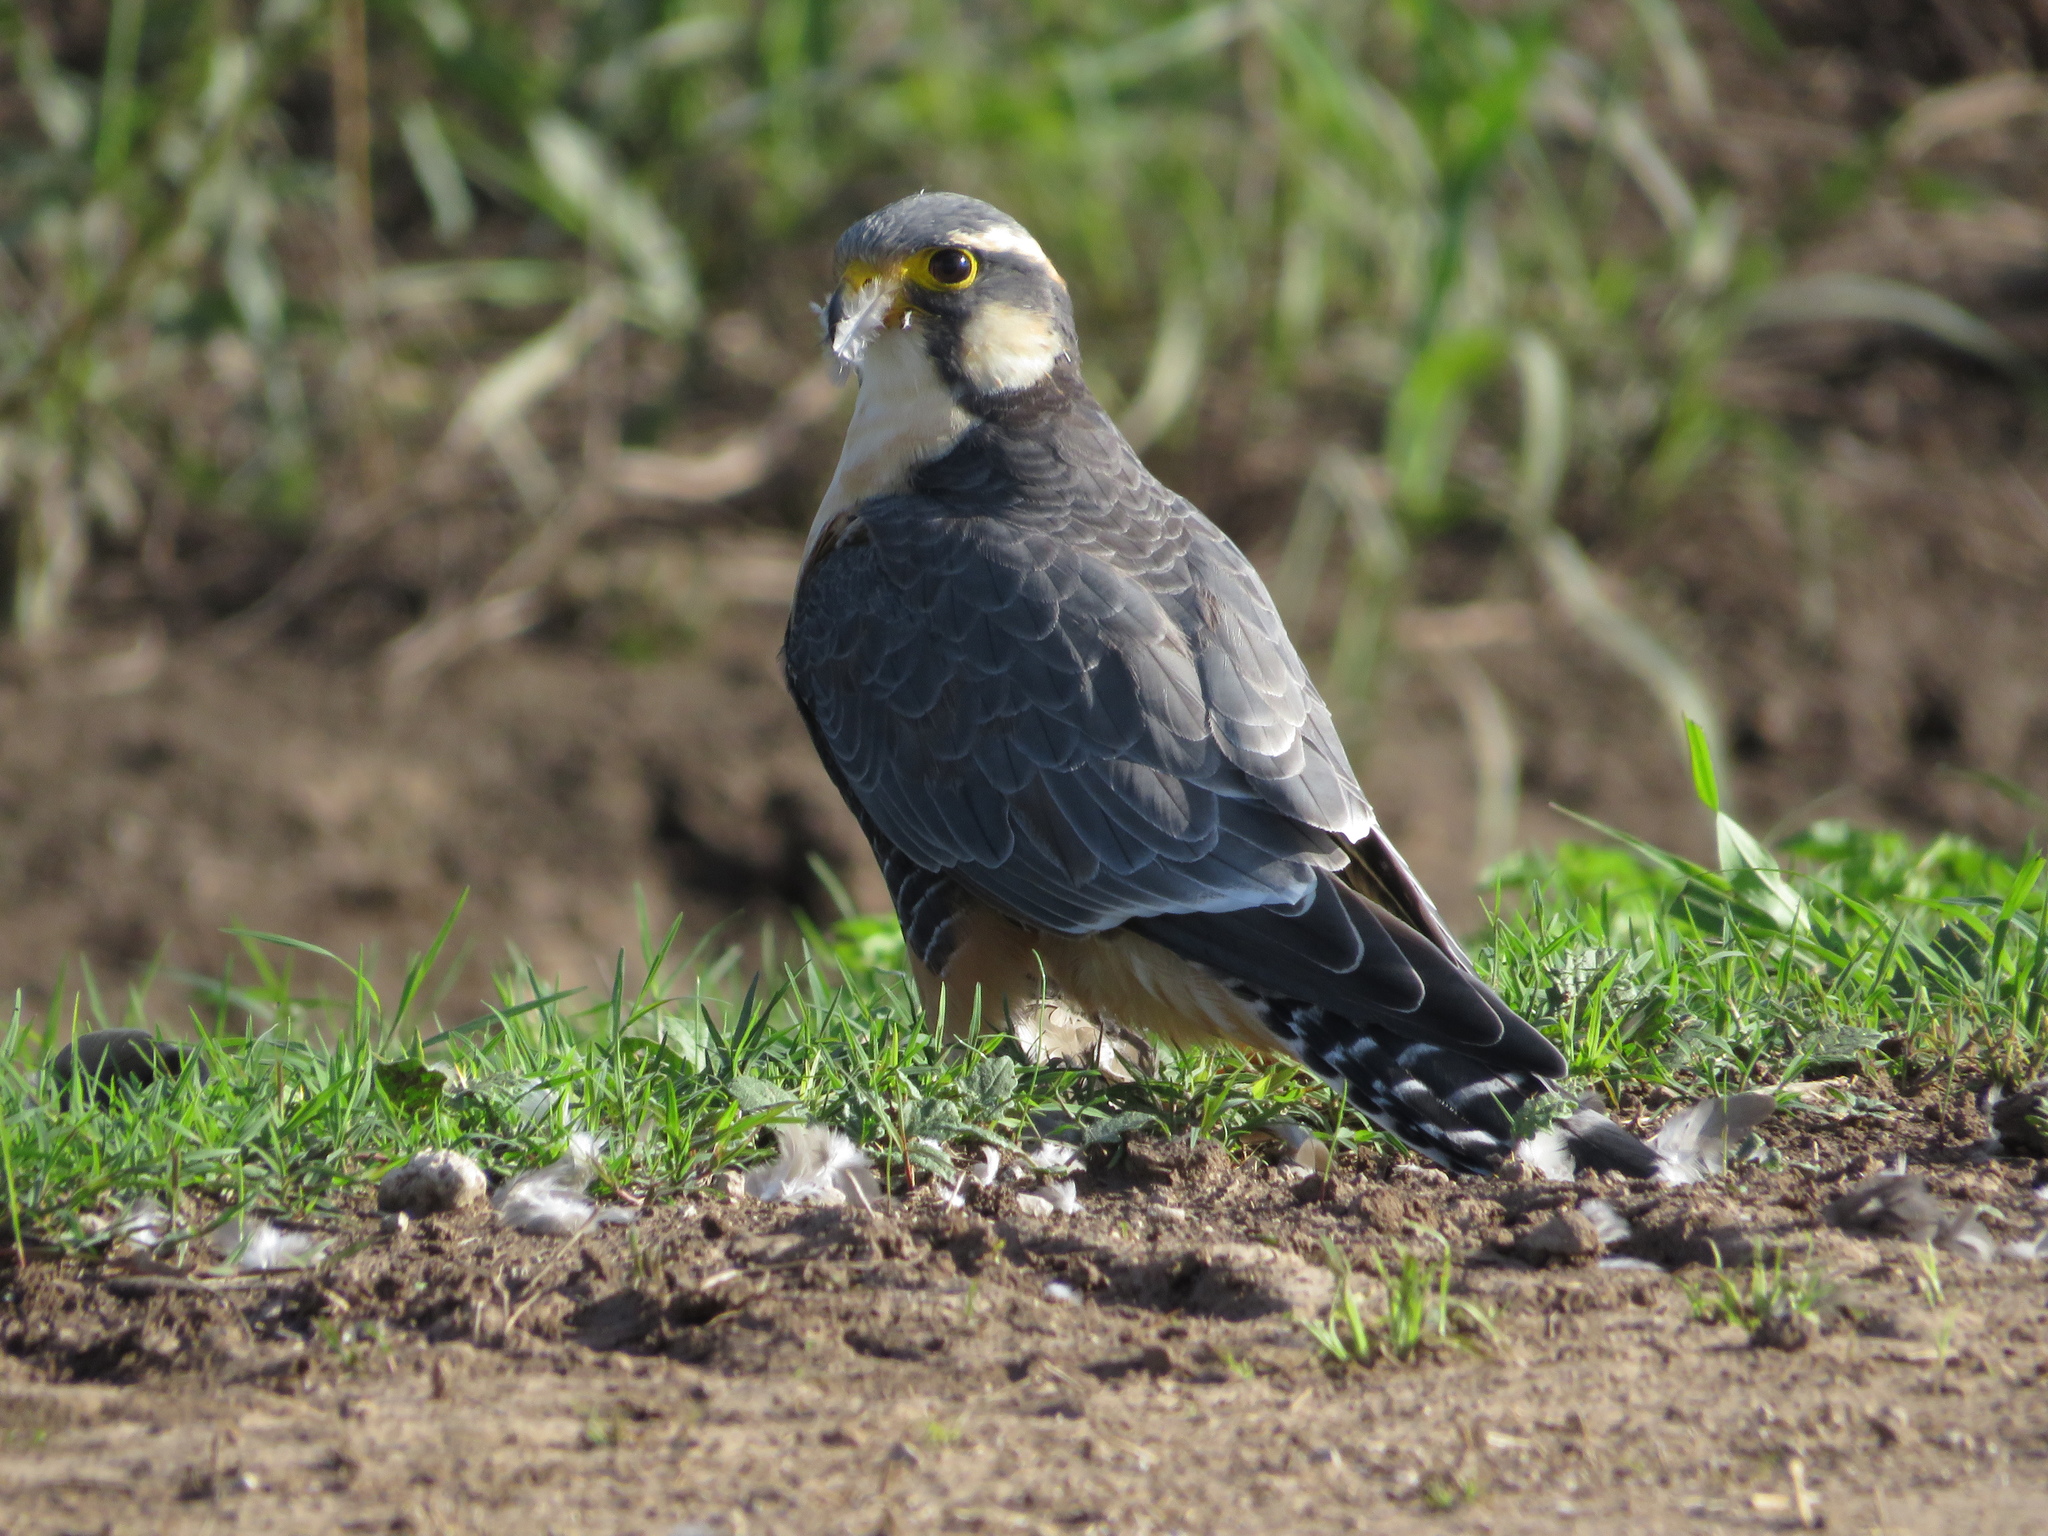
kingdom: Animalia
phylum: Chordata
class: Aves
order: Falconiformes
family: Falconidae
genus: Falco
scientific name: Falco femoralis
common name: Aplomado falcon
